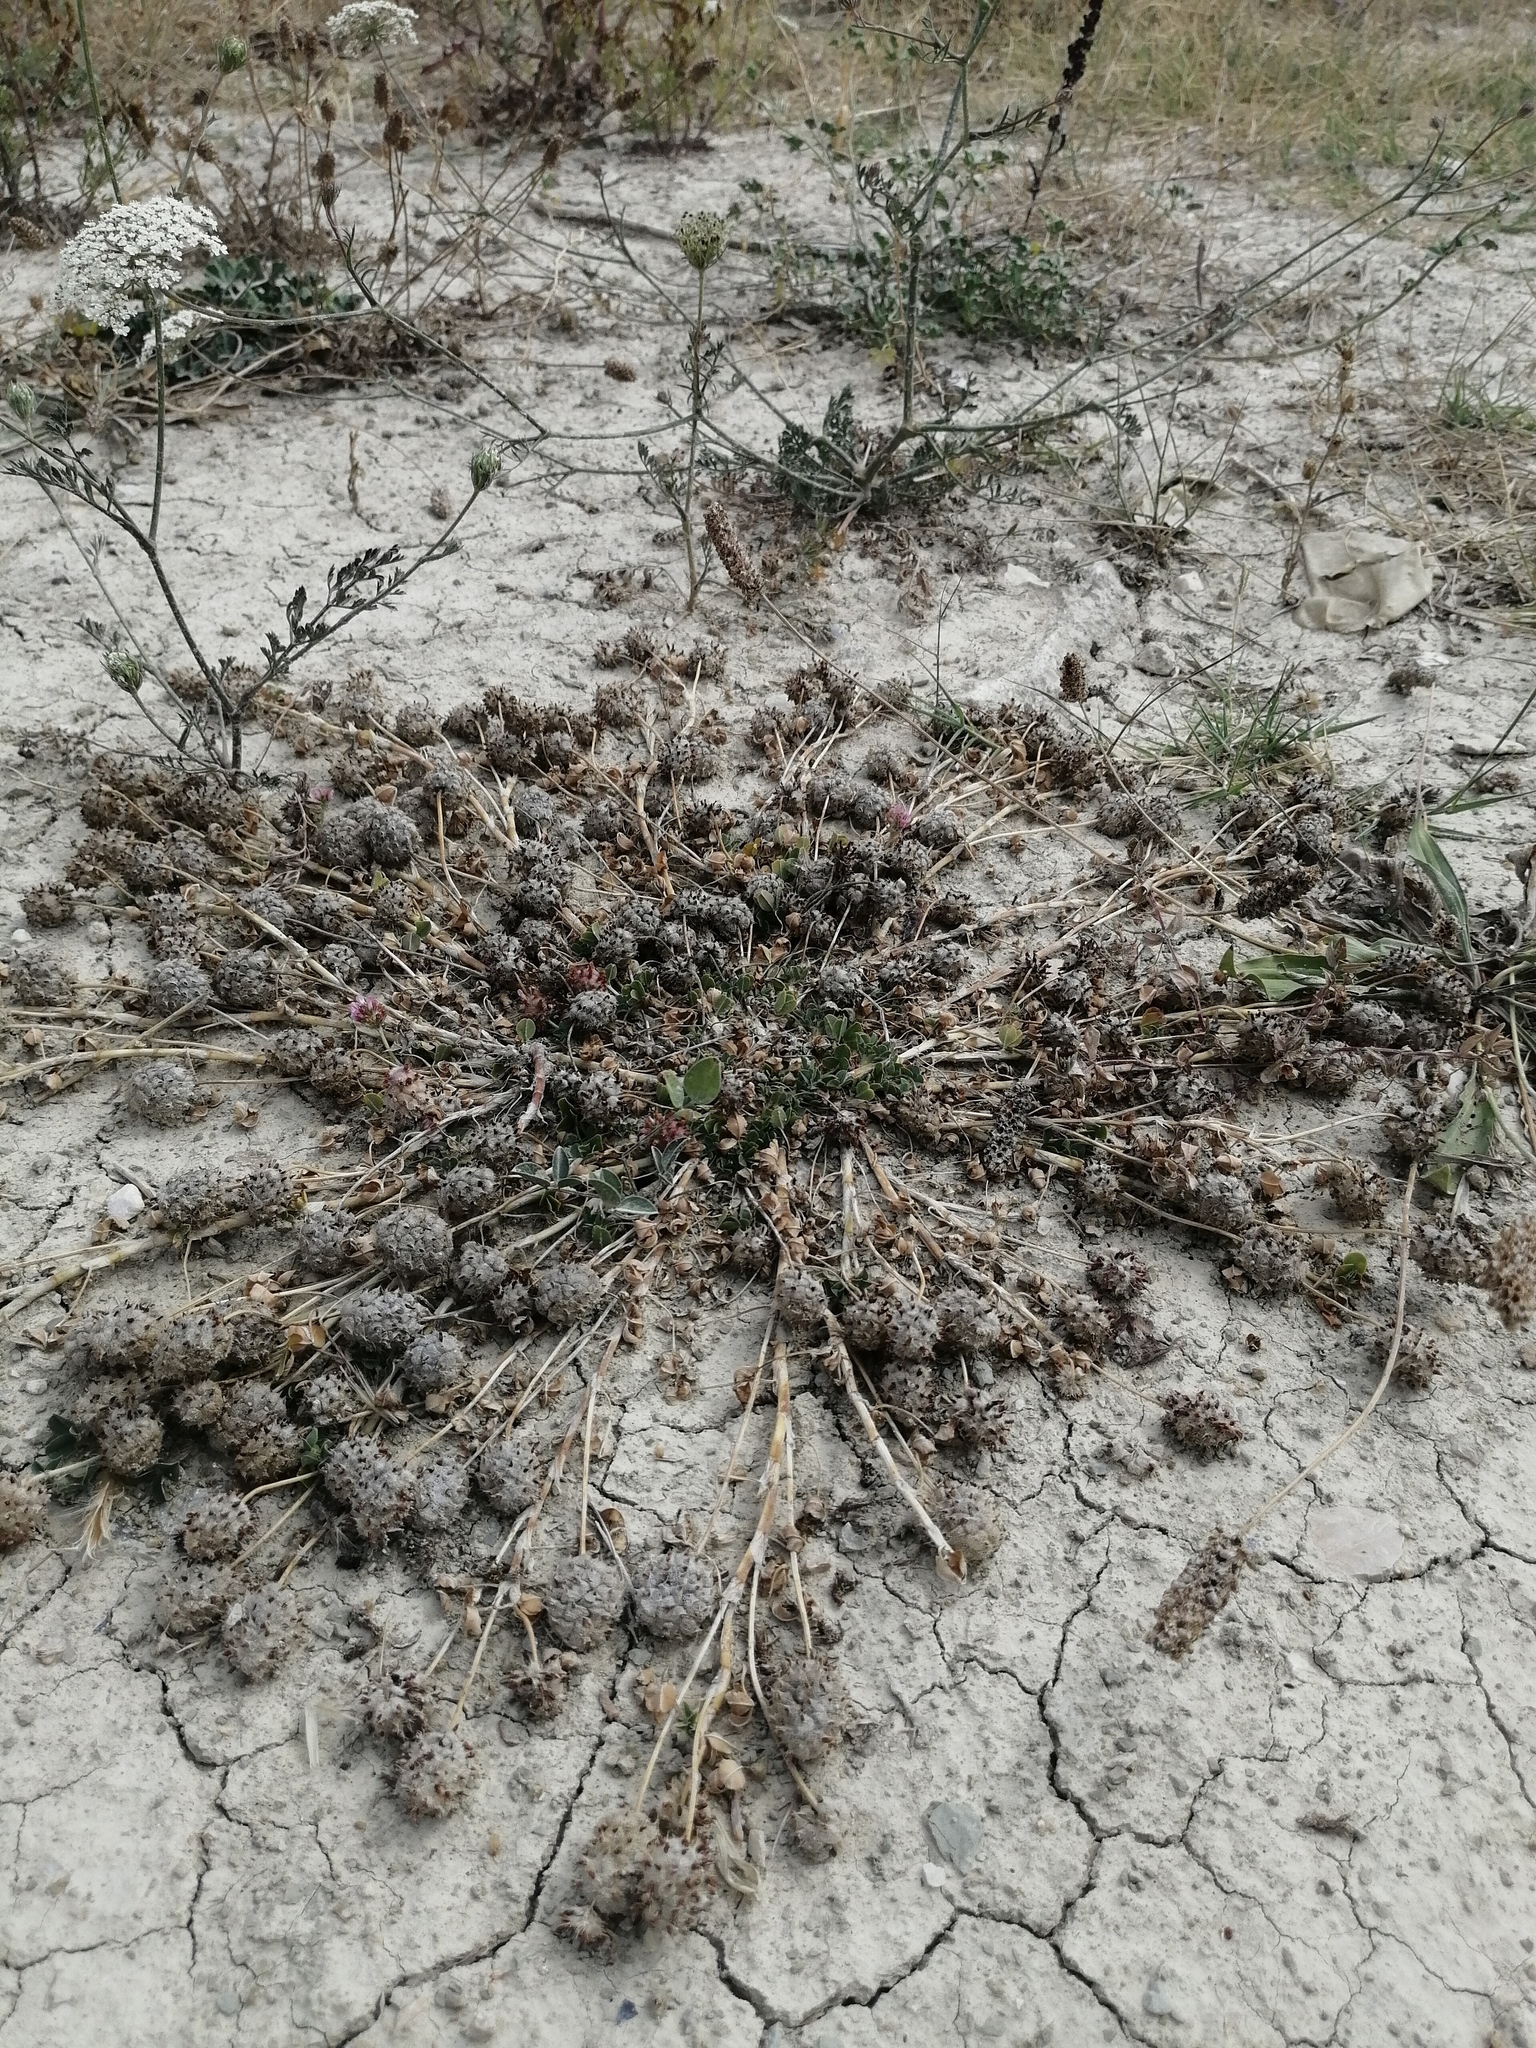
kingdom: Plantae
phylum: Tracheophyta
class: Magnoliopsida
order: Fabales
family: Fabaceae
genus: Trifolium
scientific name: Trifolium tomentosum
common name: Woolly clover
